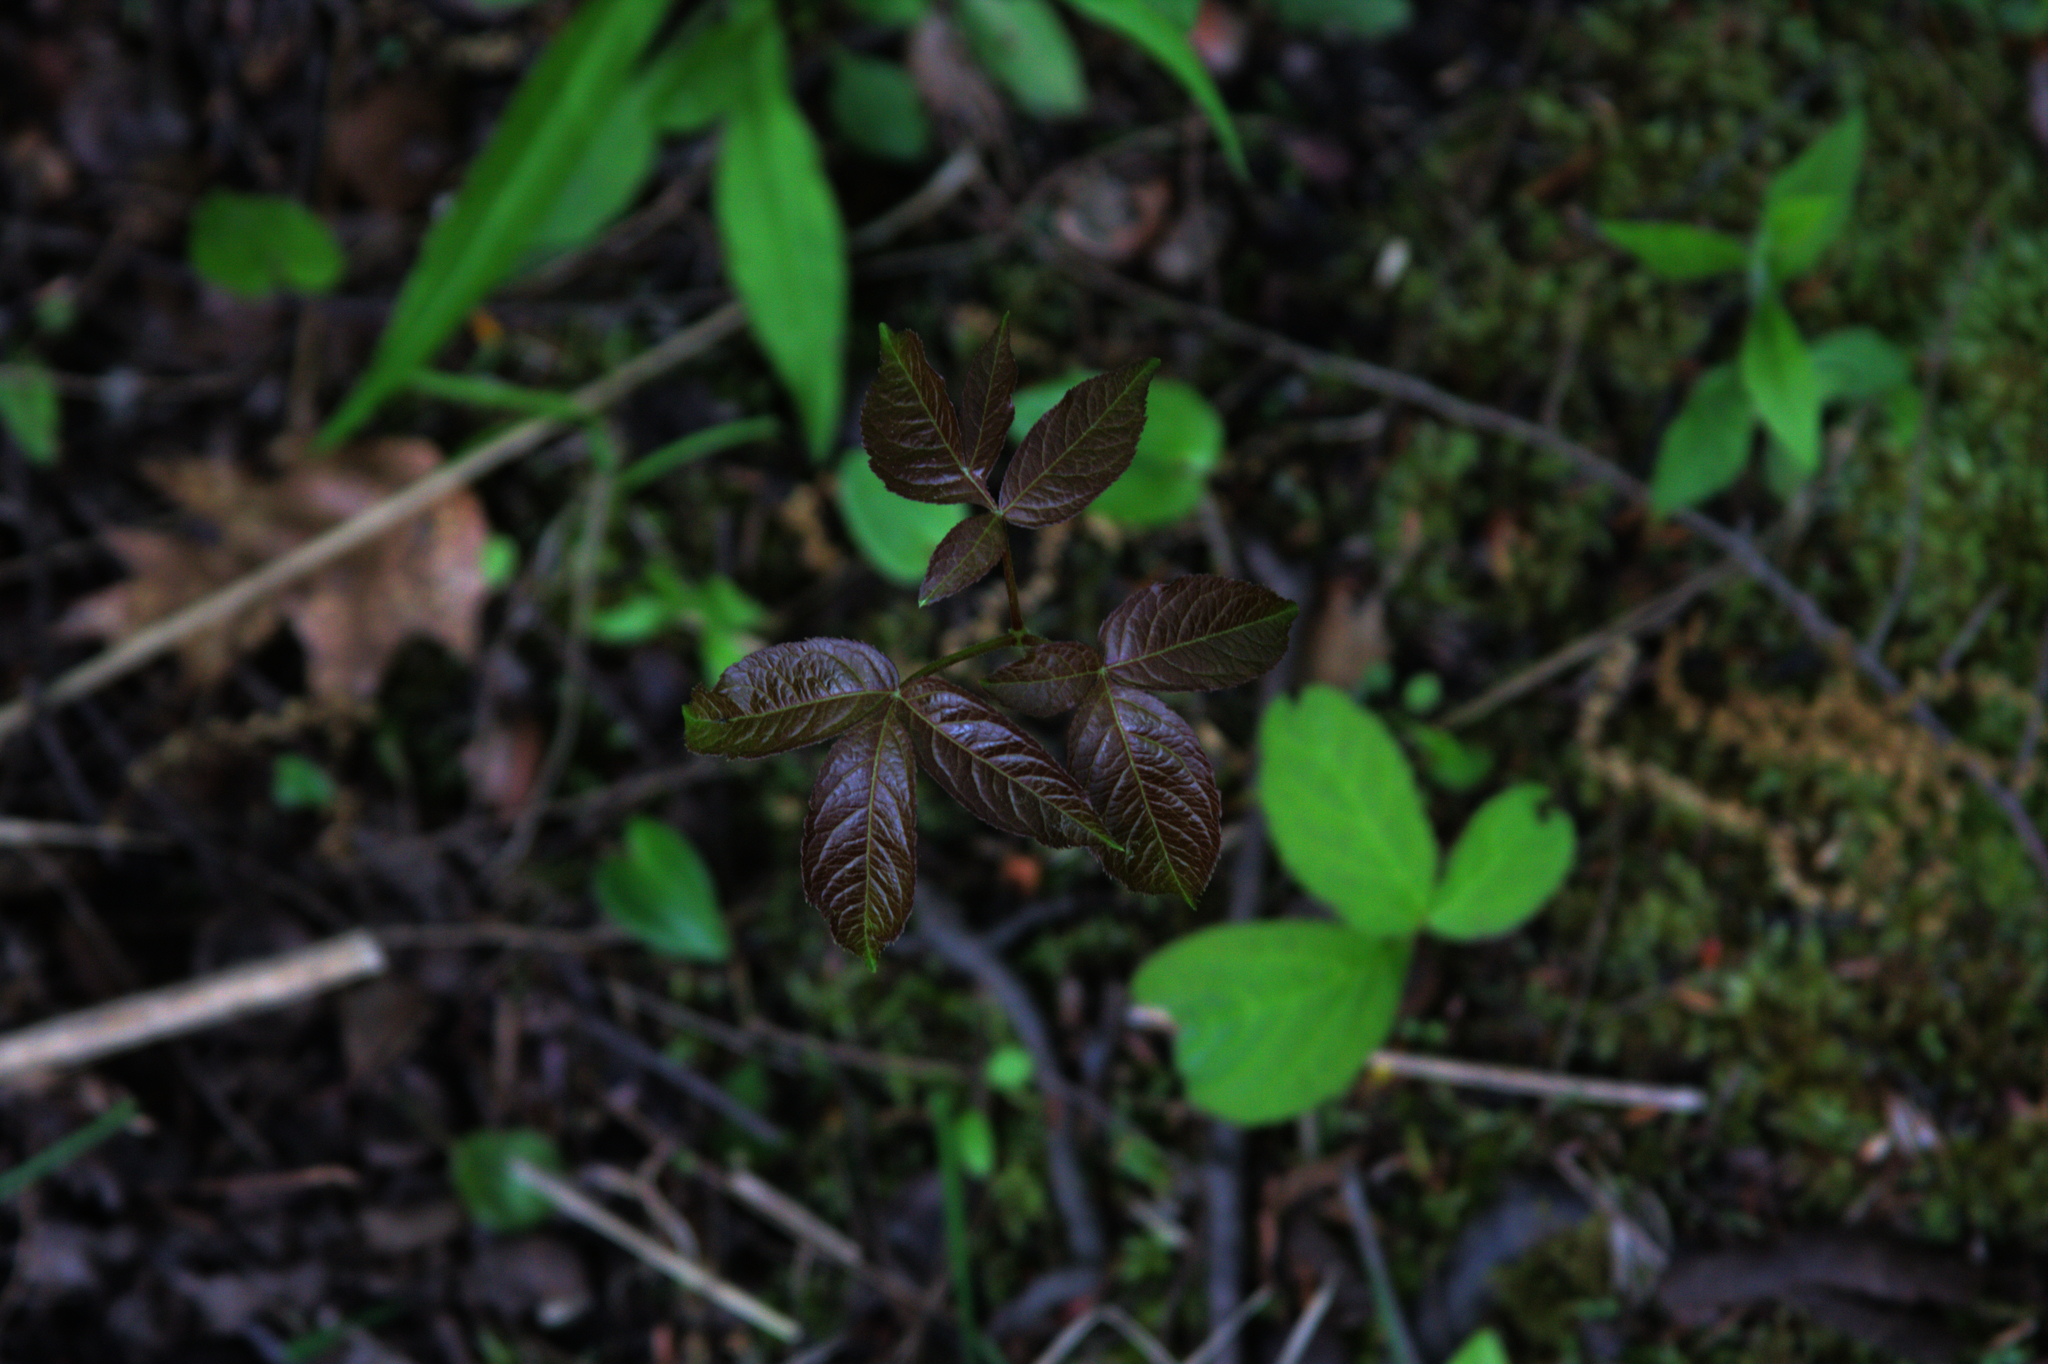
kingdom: Plantae
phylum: Tracheophyta
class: Magnoliopsida
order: Apiales
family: Araliaceae
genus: Aralia
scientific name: Aralia nudicaulis
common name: Wild sarsaparilla
